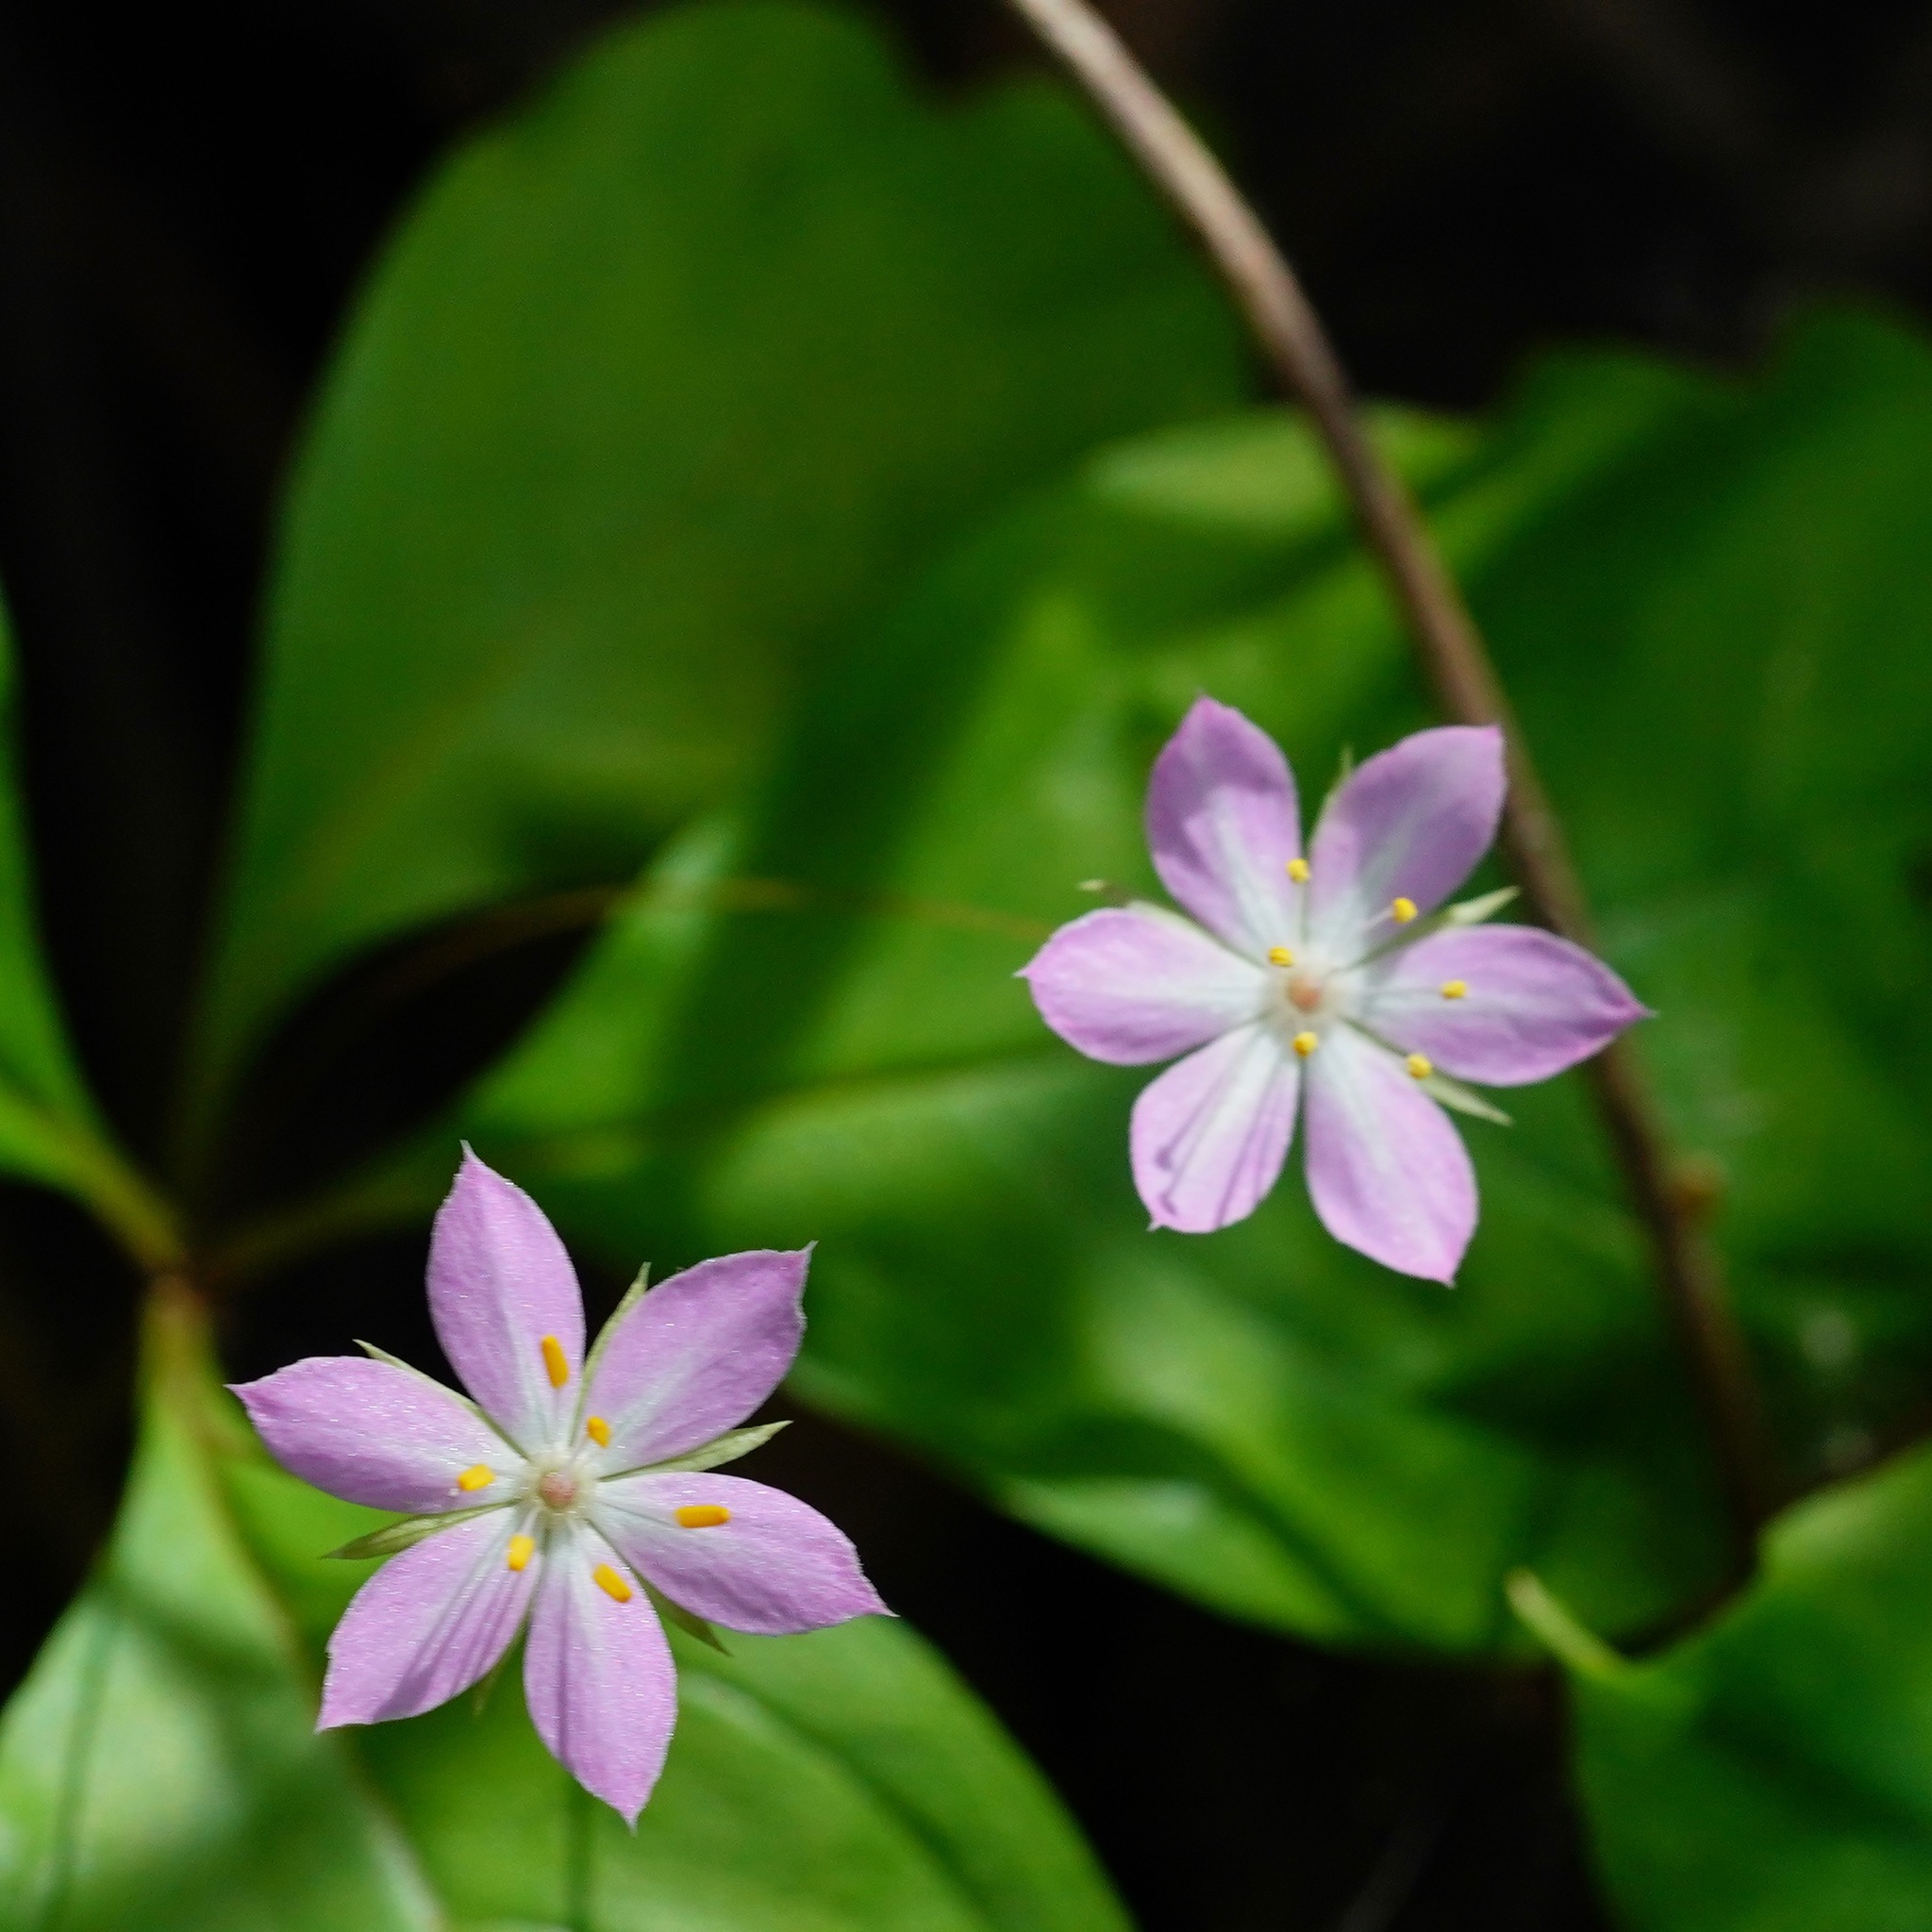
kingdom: Plantae
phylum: Tracheophyta
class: Magnoliopsida
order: Ericales
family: Primulaceae
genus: Lysimachia
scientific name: Lysimachia latifolia
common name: Pacific starflower
